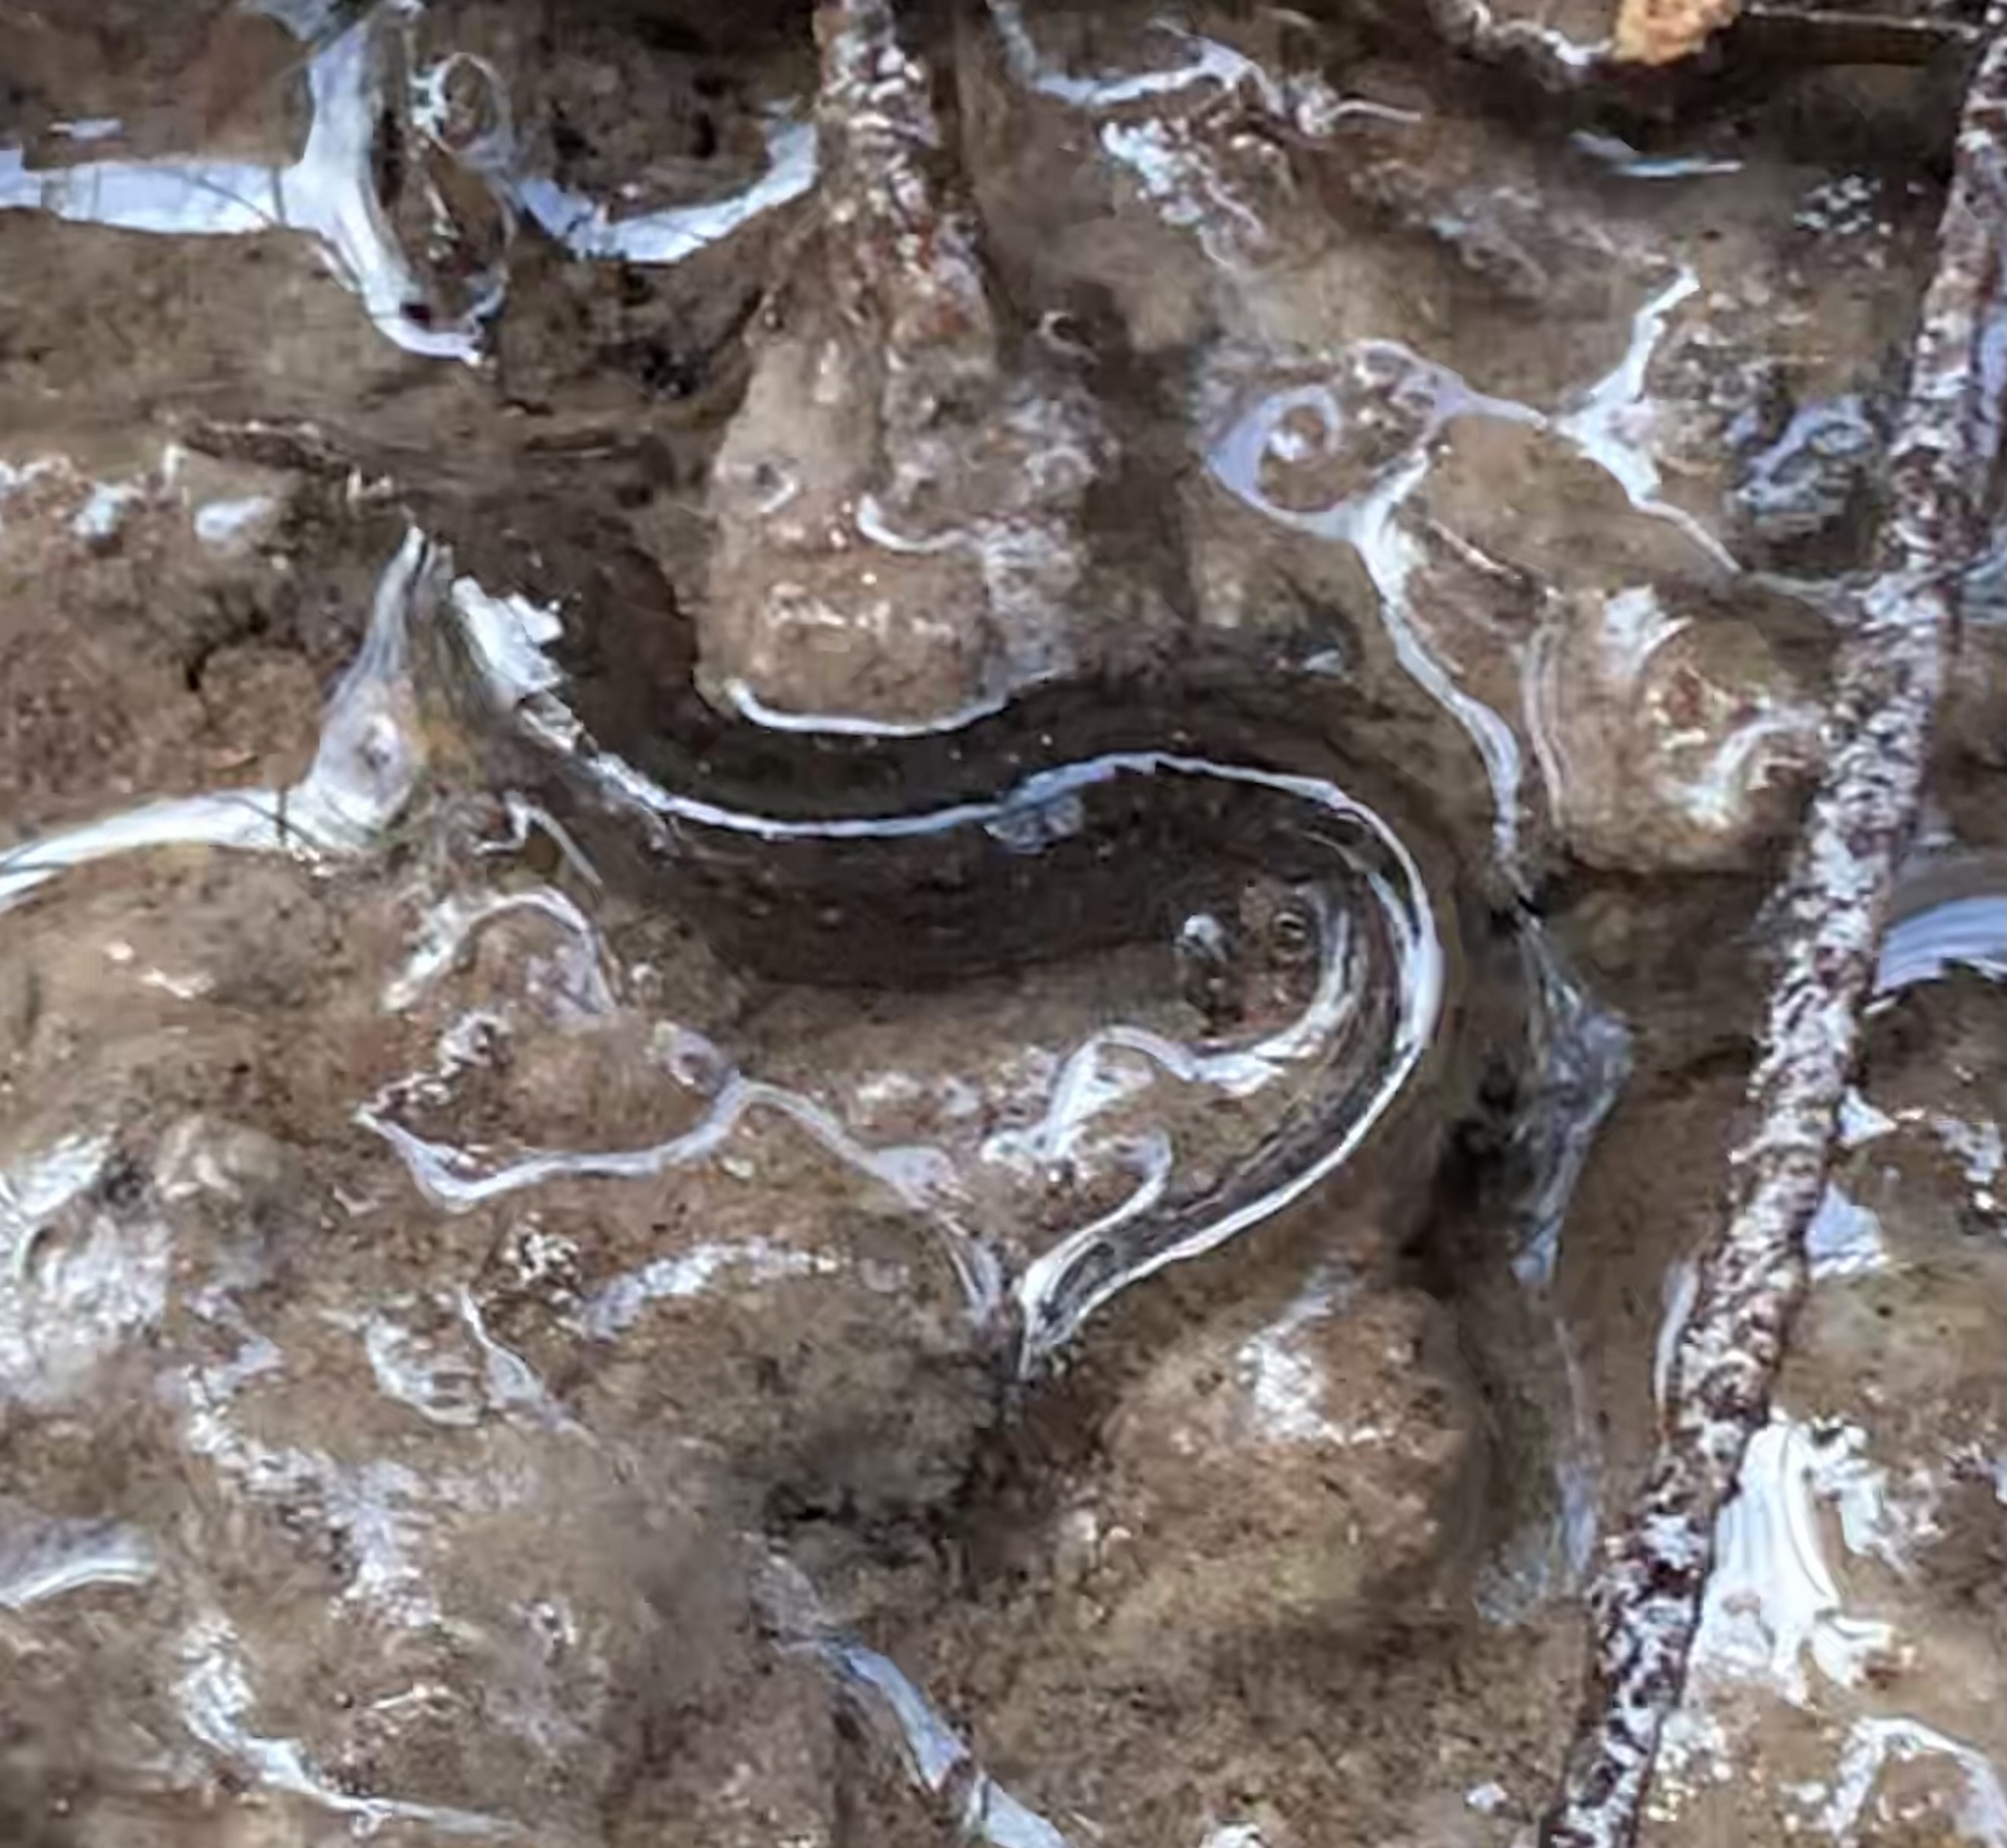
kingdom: Animalia
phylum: Chordata
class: Amphibia
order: Caudata
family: Plethodontidae
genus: Desmognathus
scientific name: Desmognathus
